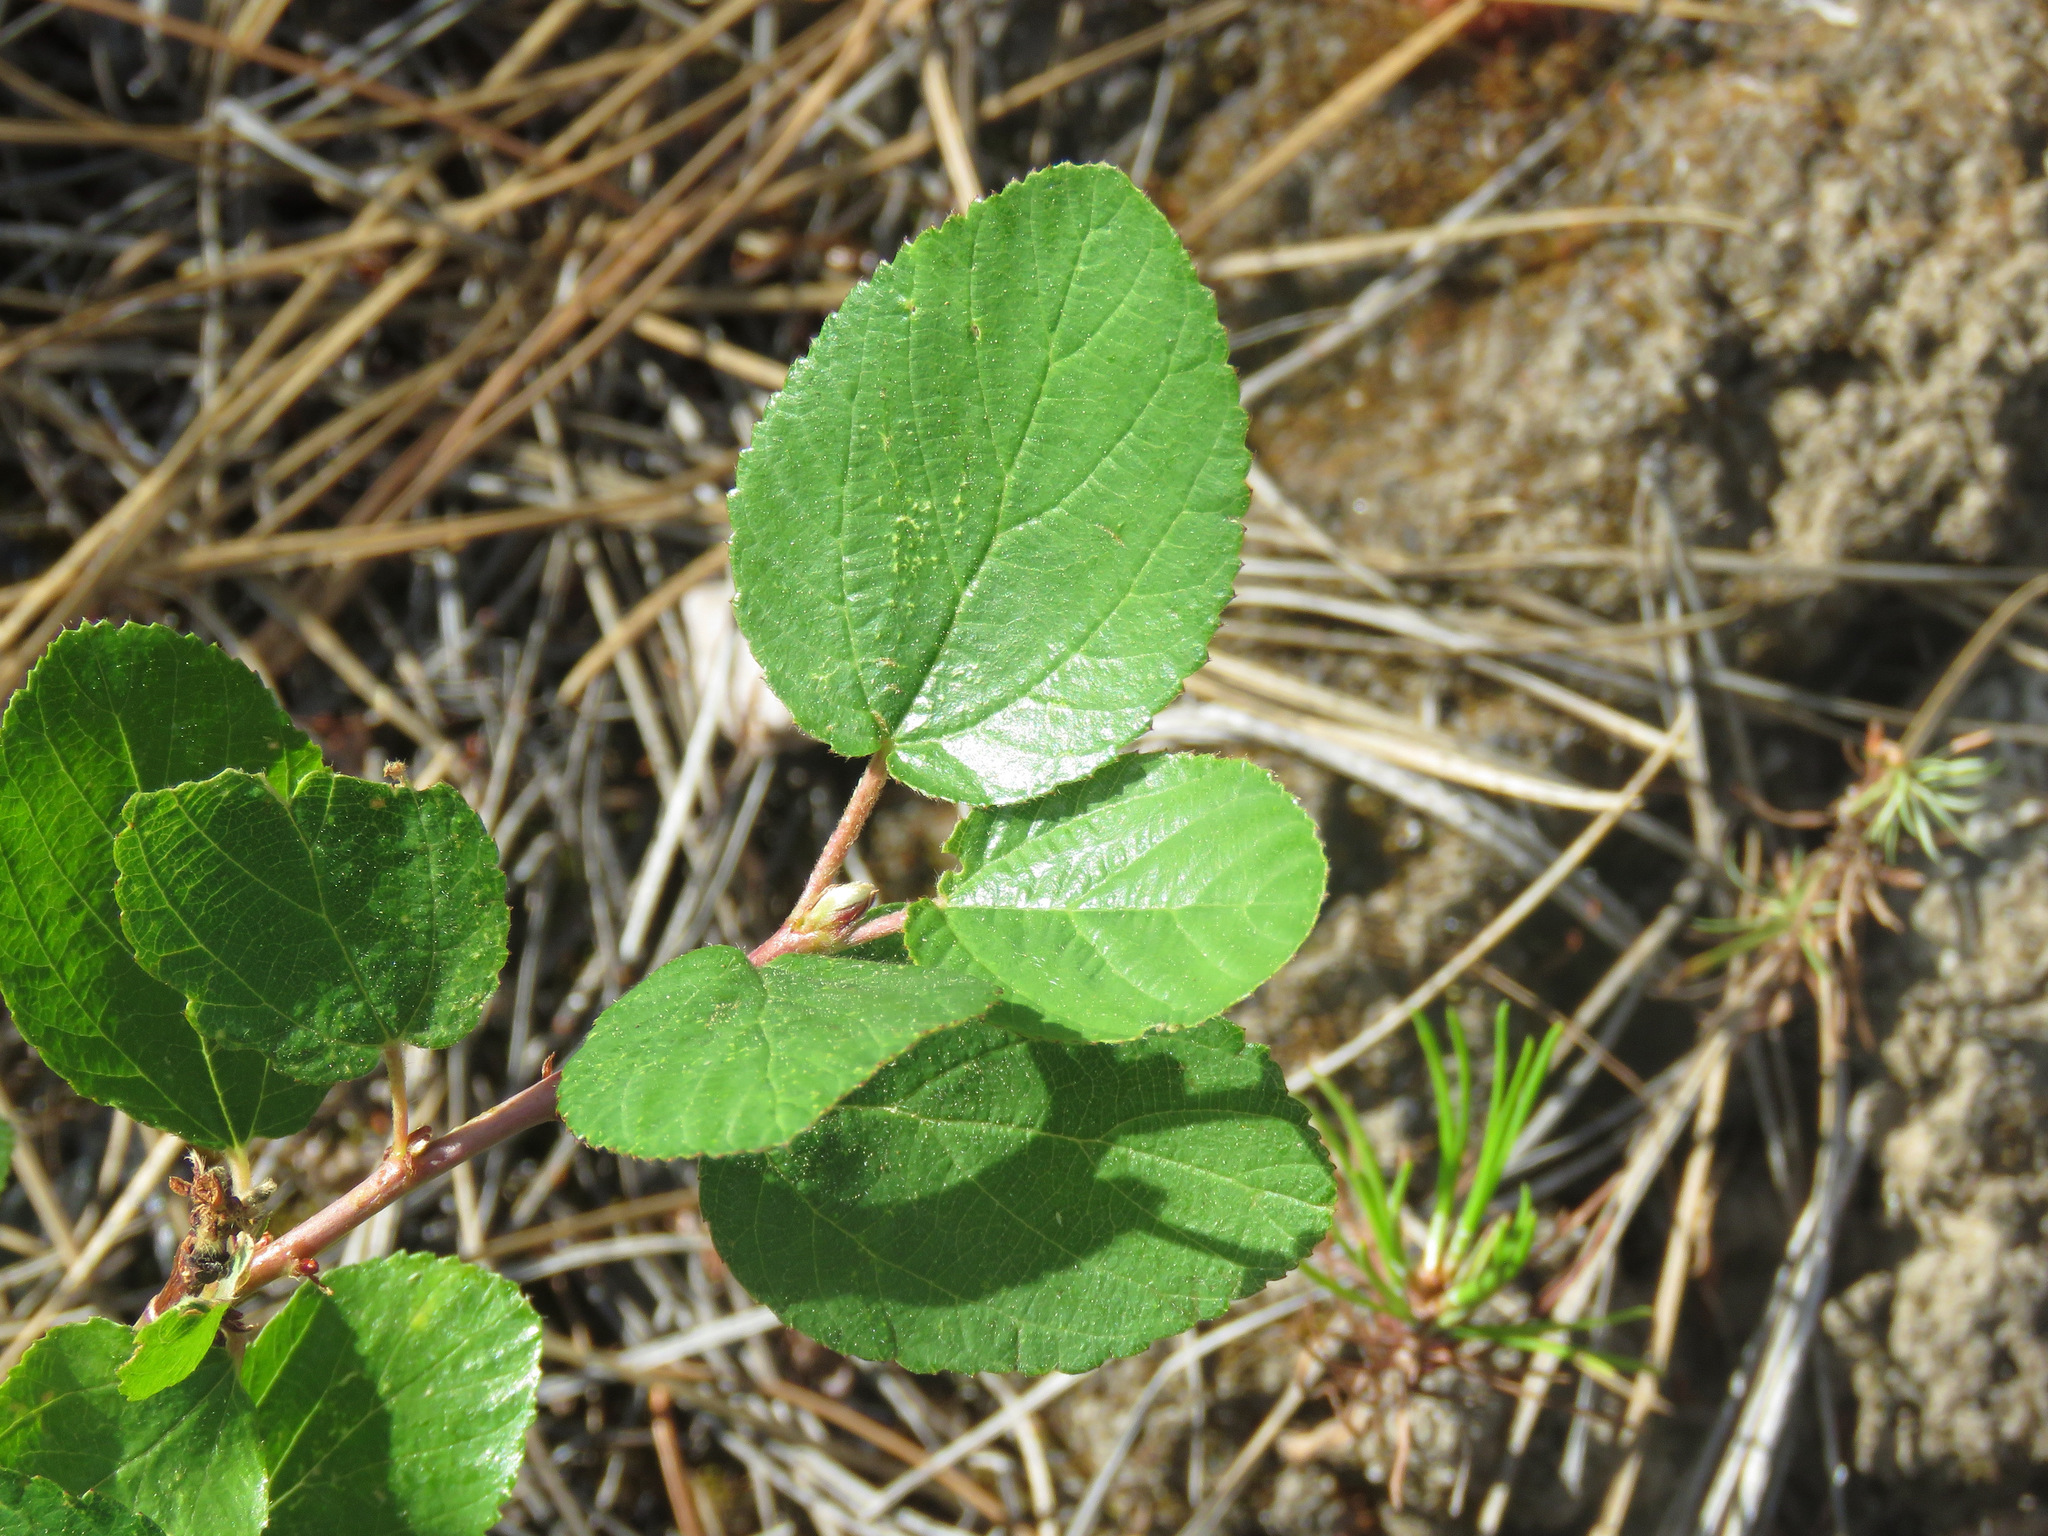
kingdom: Plantae
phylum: Tracheophyta
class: Magnoliopsida
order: Rosales
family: Rhamnaceae
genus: Ceanothus
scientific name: Ceanothus sanguineus
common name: Teatree
